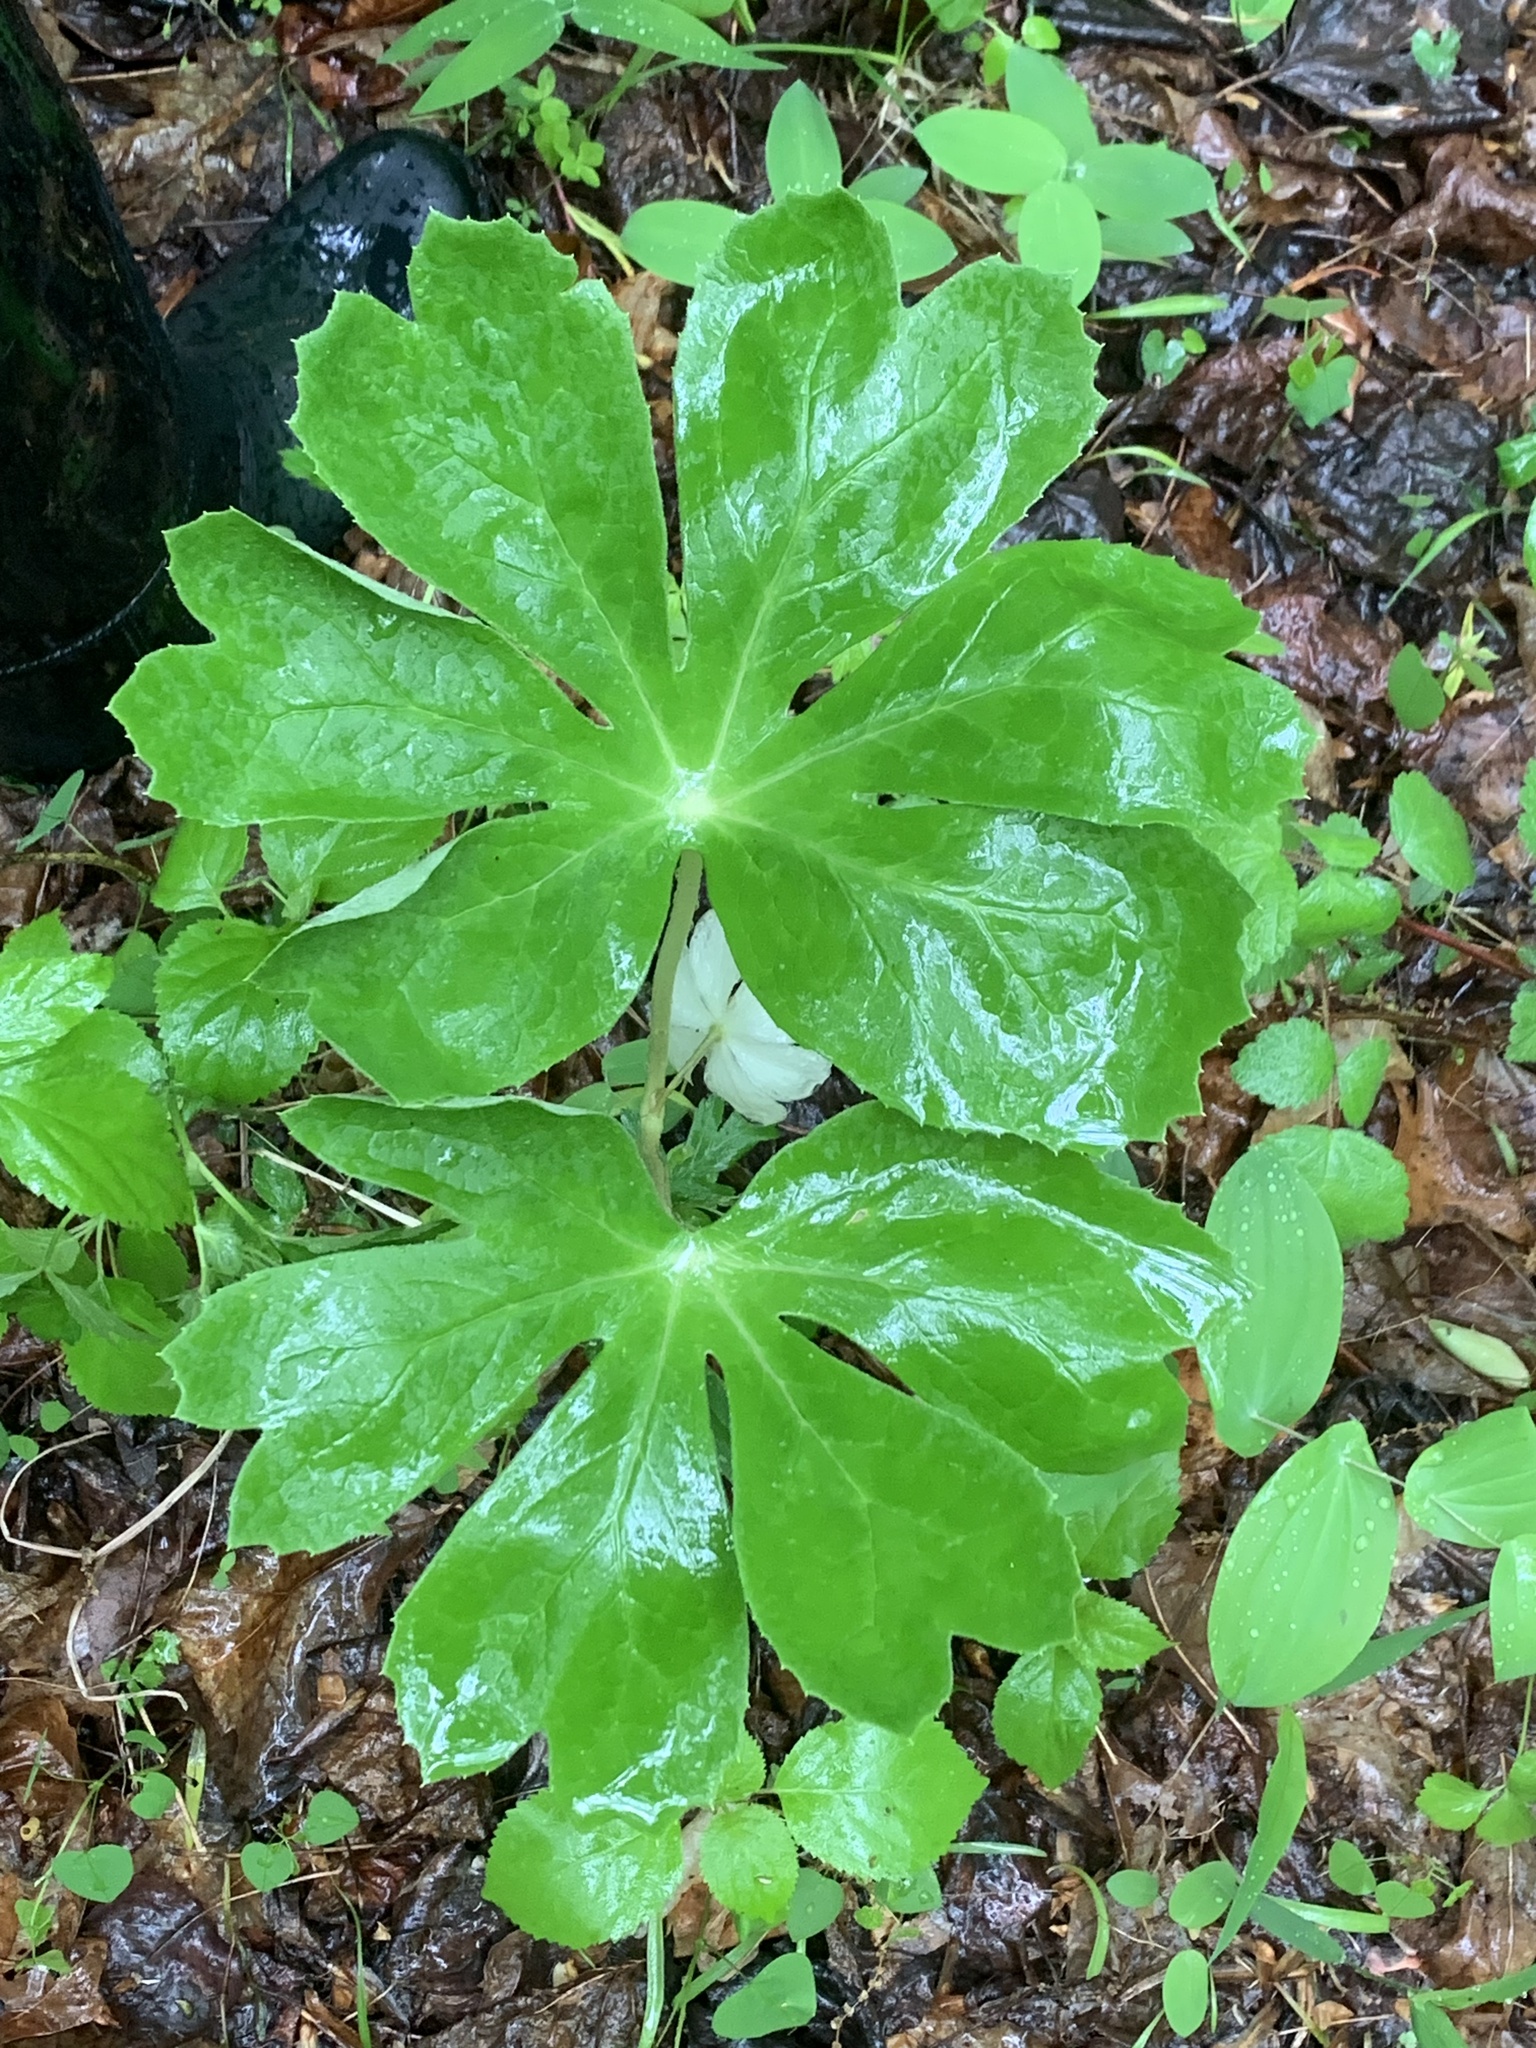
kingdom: Plantae
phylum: Tracheophyta
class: Magnoliopsida
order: Ranunculales
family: Berberidaceae
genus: Podophyllum
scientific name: Podophyllum peltatum
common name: Wild mandrake
